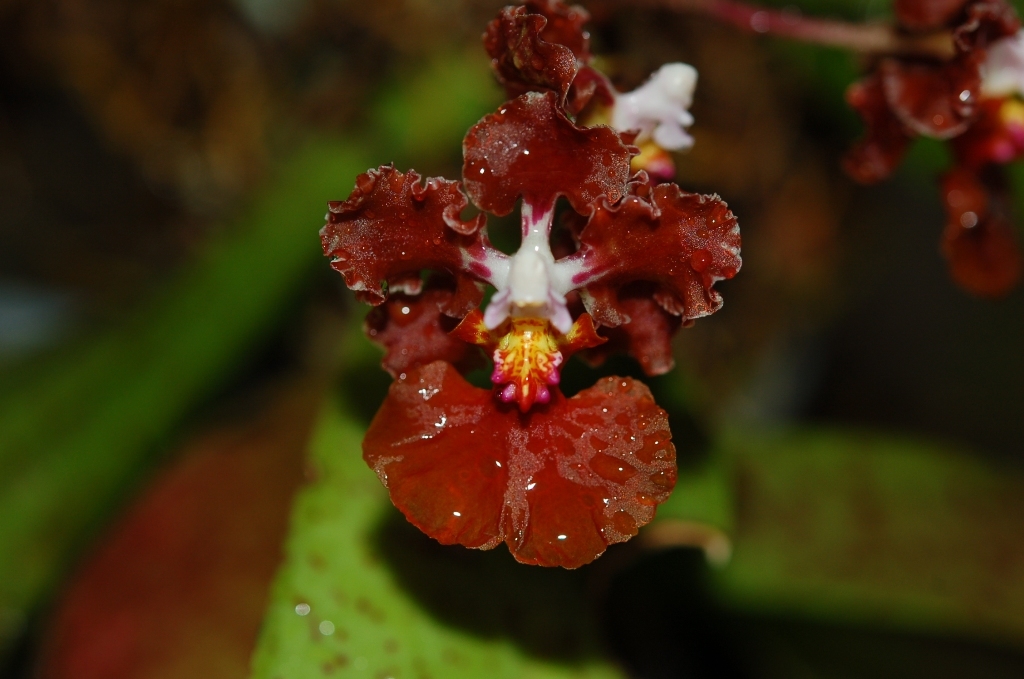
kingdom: Plantae
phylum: Tracheophyta
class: Liliopsida
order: Asparagales
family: Orchidaceae
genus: Trichocentrum
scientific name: Trichocentrum luridum
